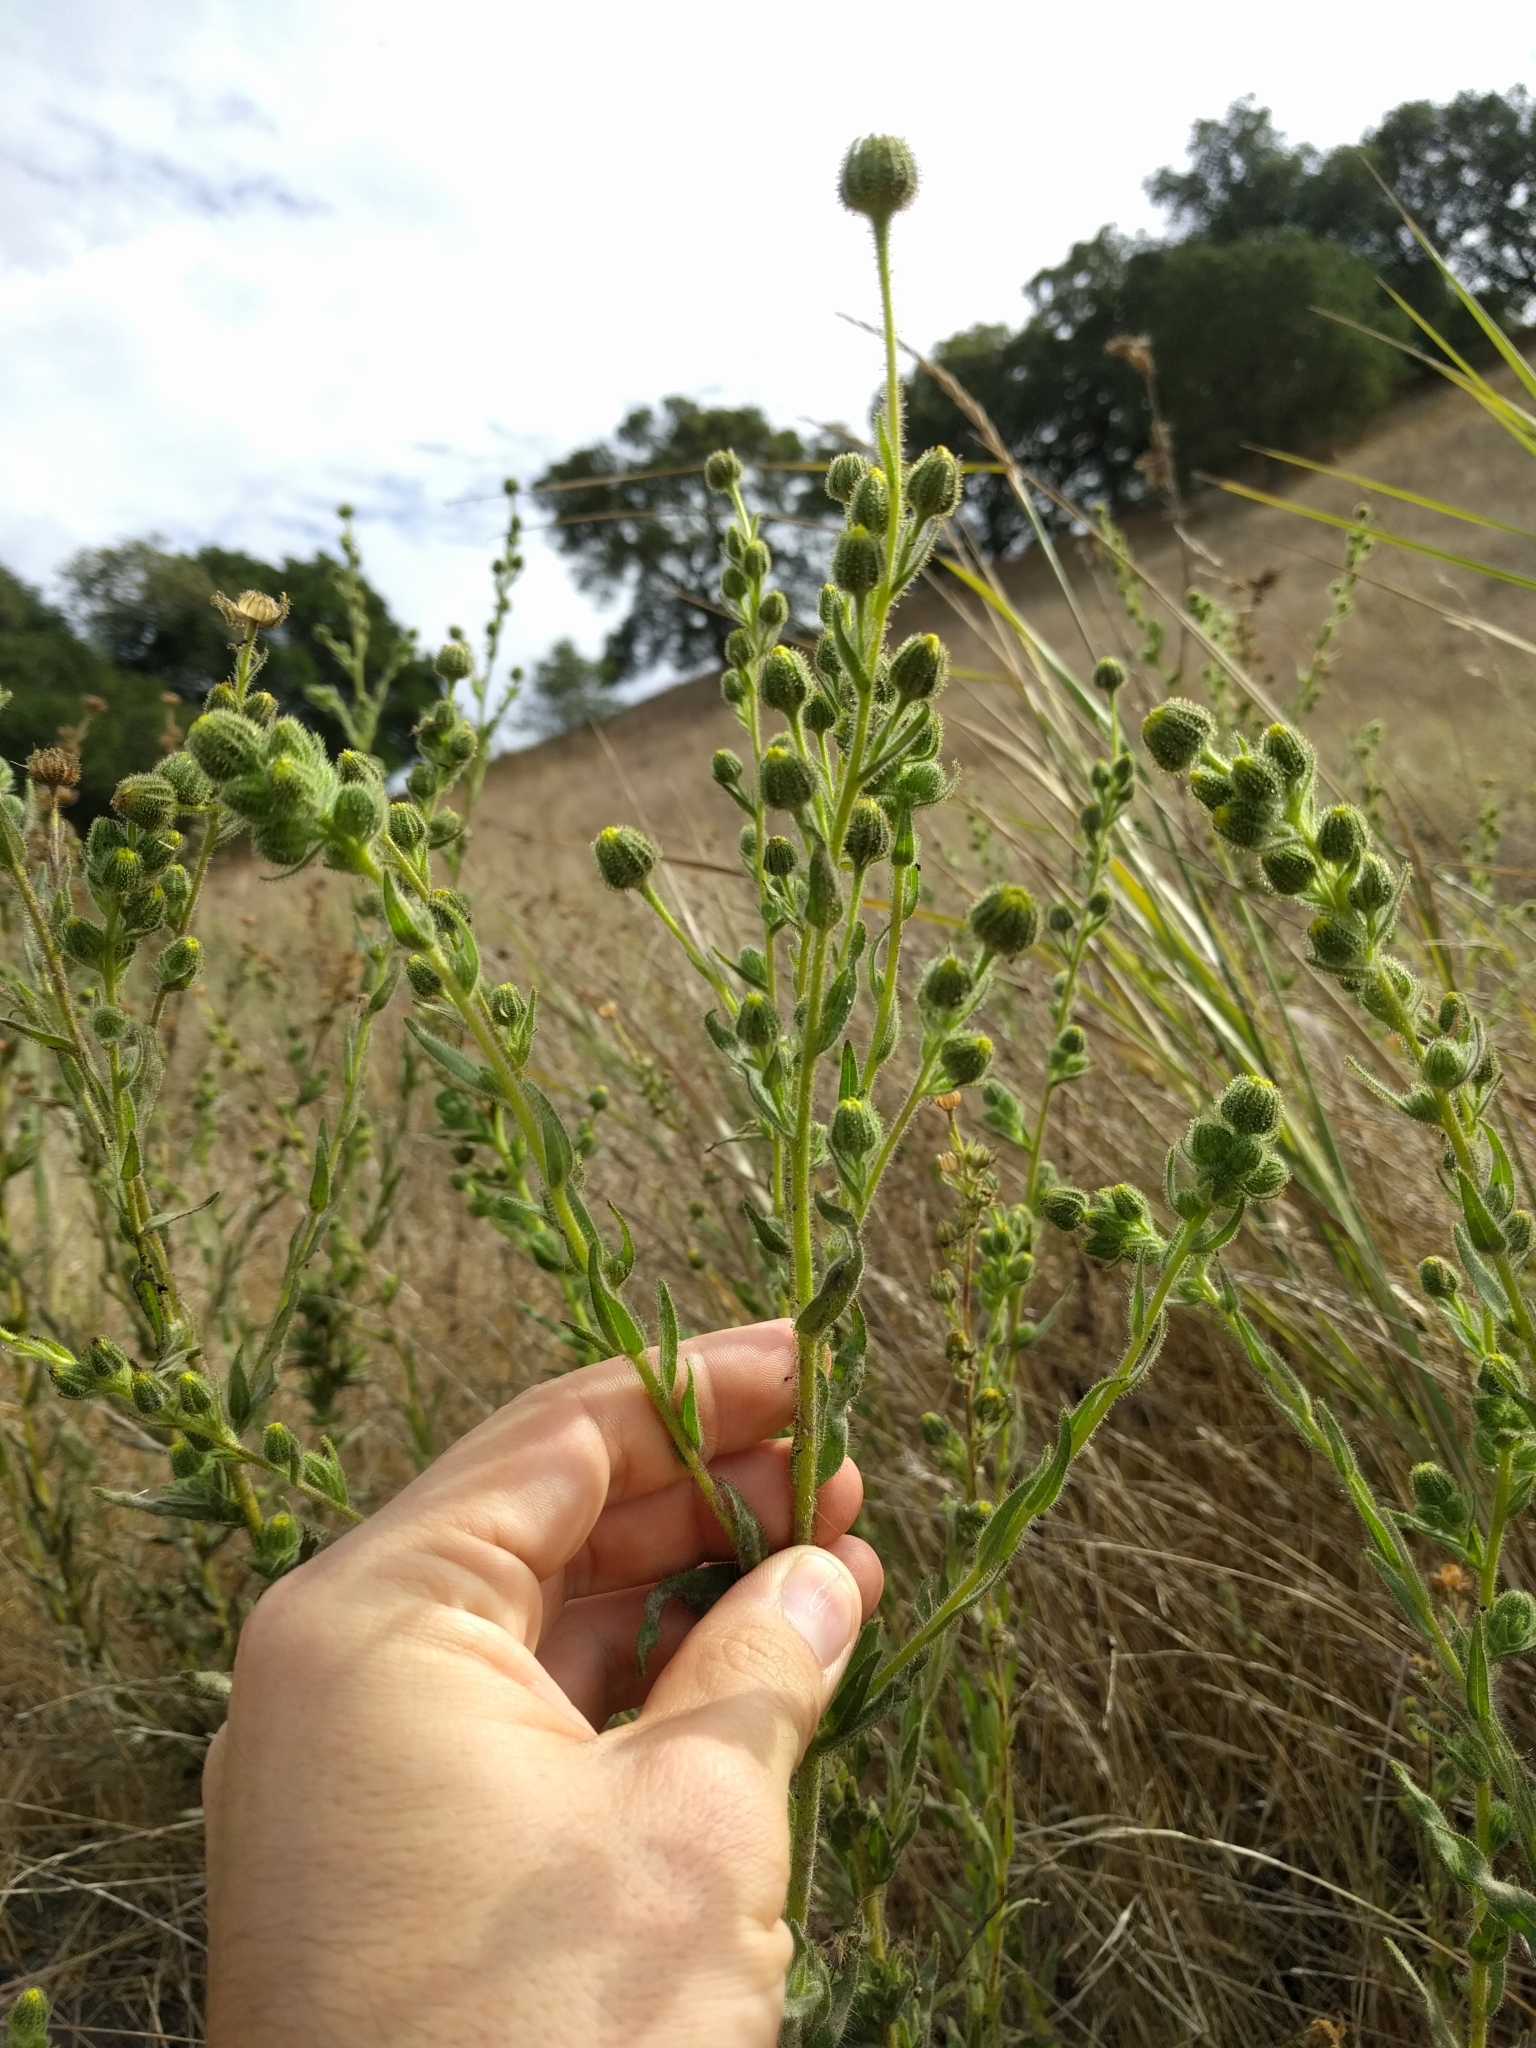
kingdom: Plantae
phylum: Tracheophyta
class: Magnoliopsida
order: Asterales
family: Asteraceae
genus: Madia
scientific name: Madia sativa
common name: Coast tarweed
